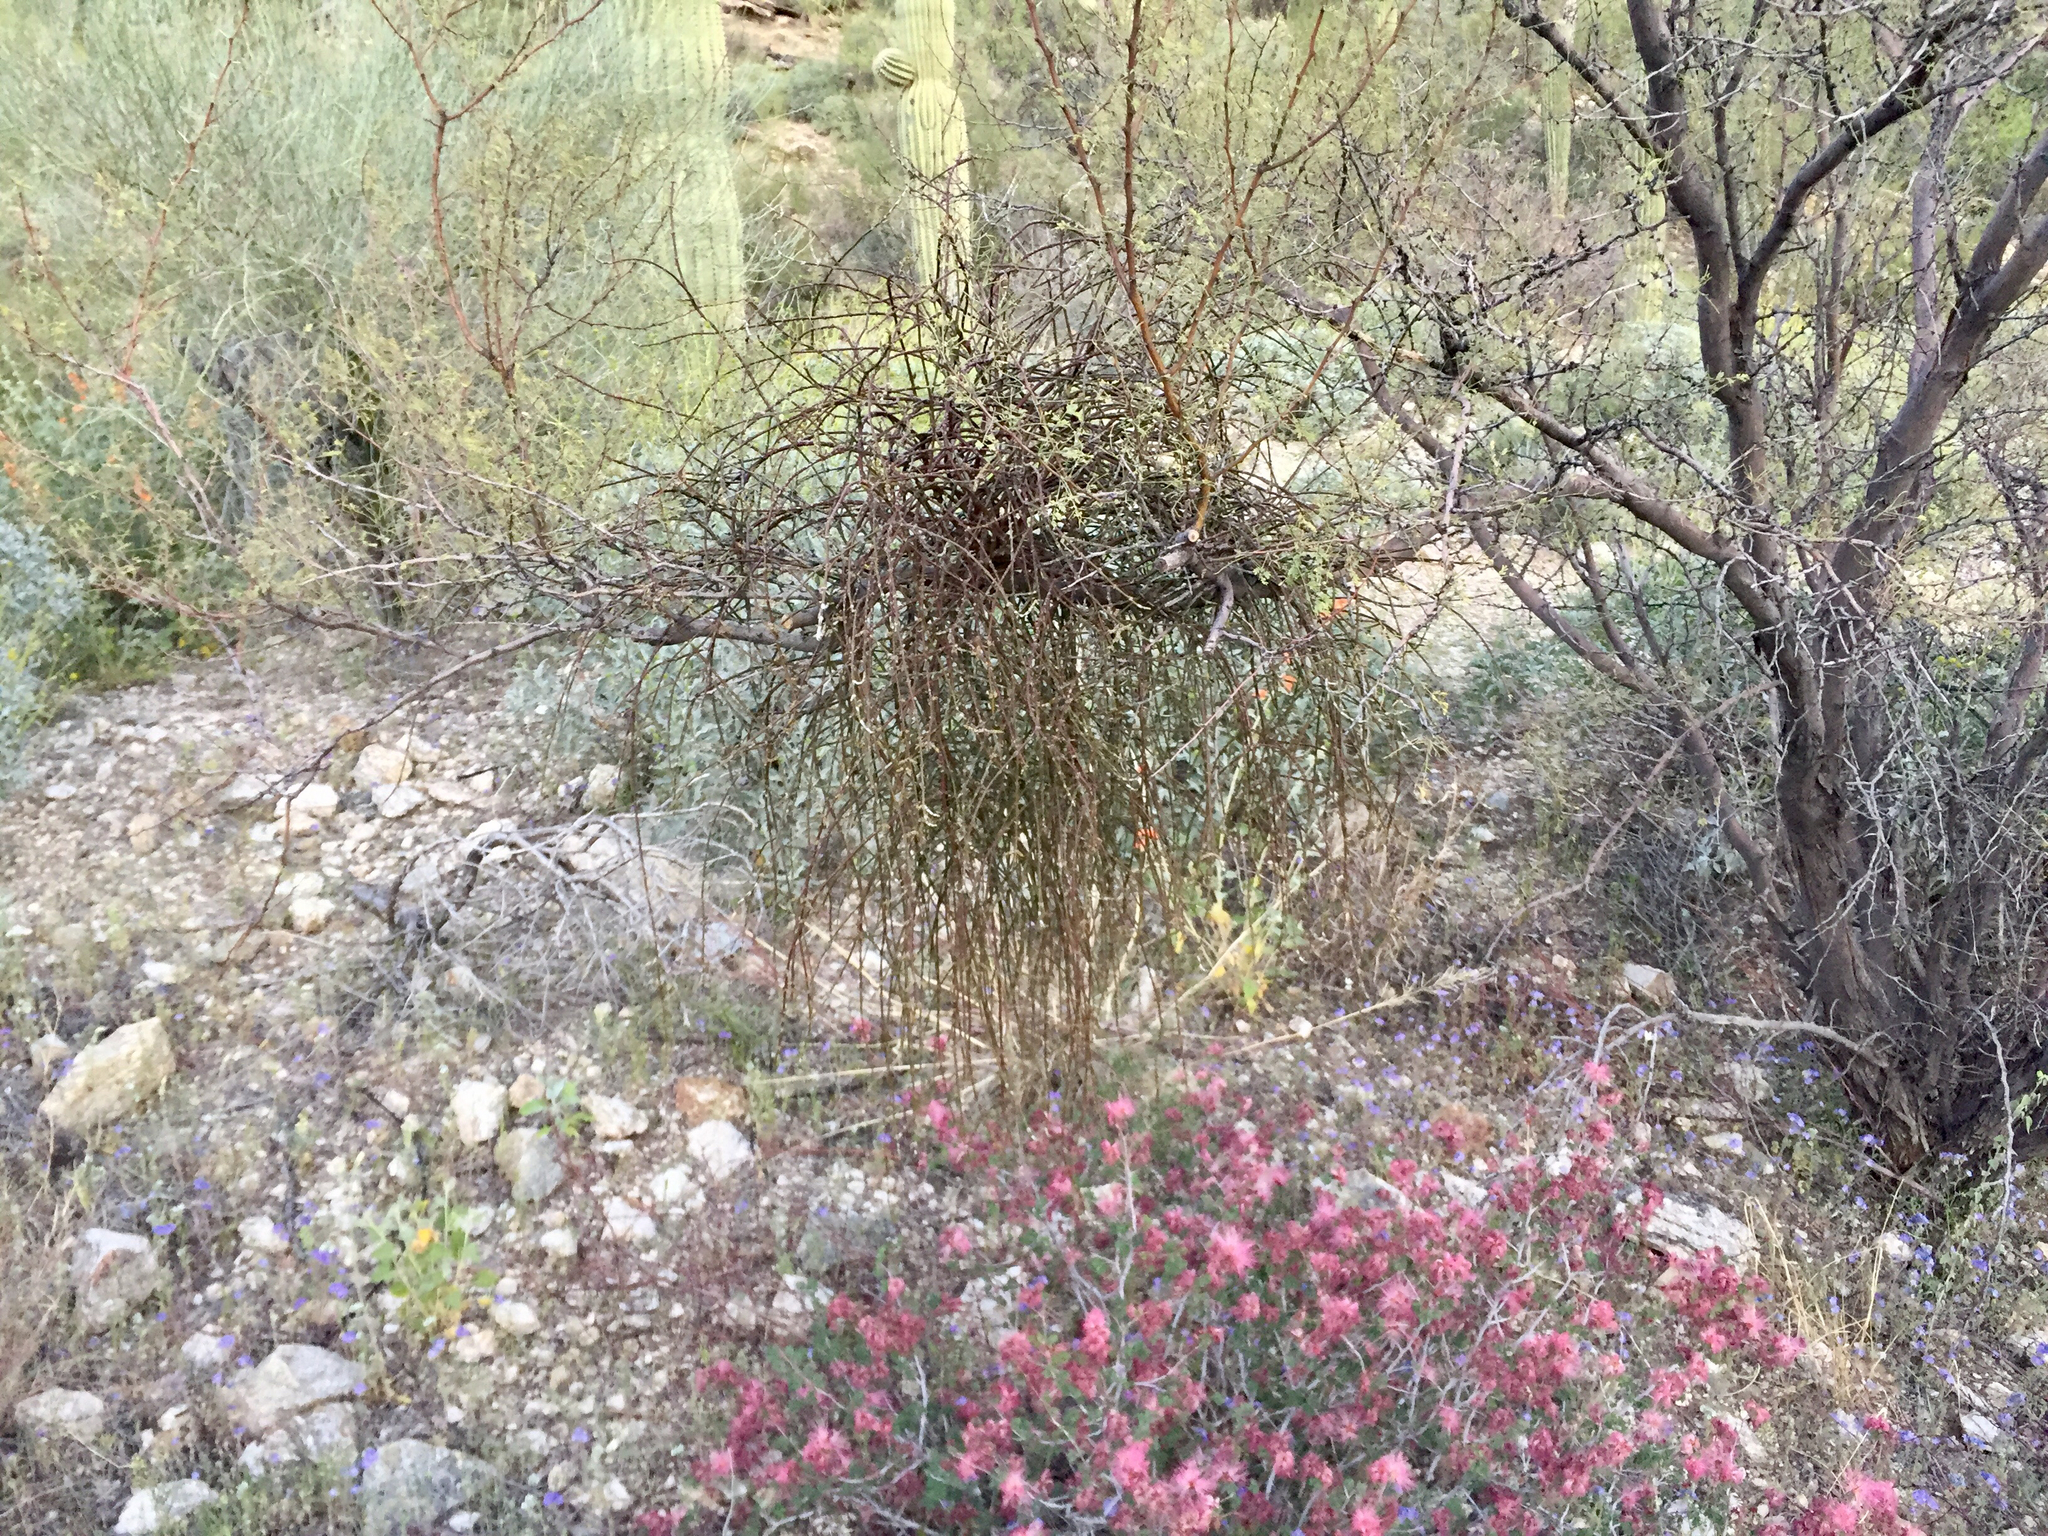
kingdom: Plantae
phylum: Tracheophyta
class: Magnoliopsida
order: Santalales
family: Viscaceae
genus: Phoradendron
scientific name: Phoradendron californicum
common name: Acacia mistletoe
